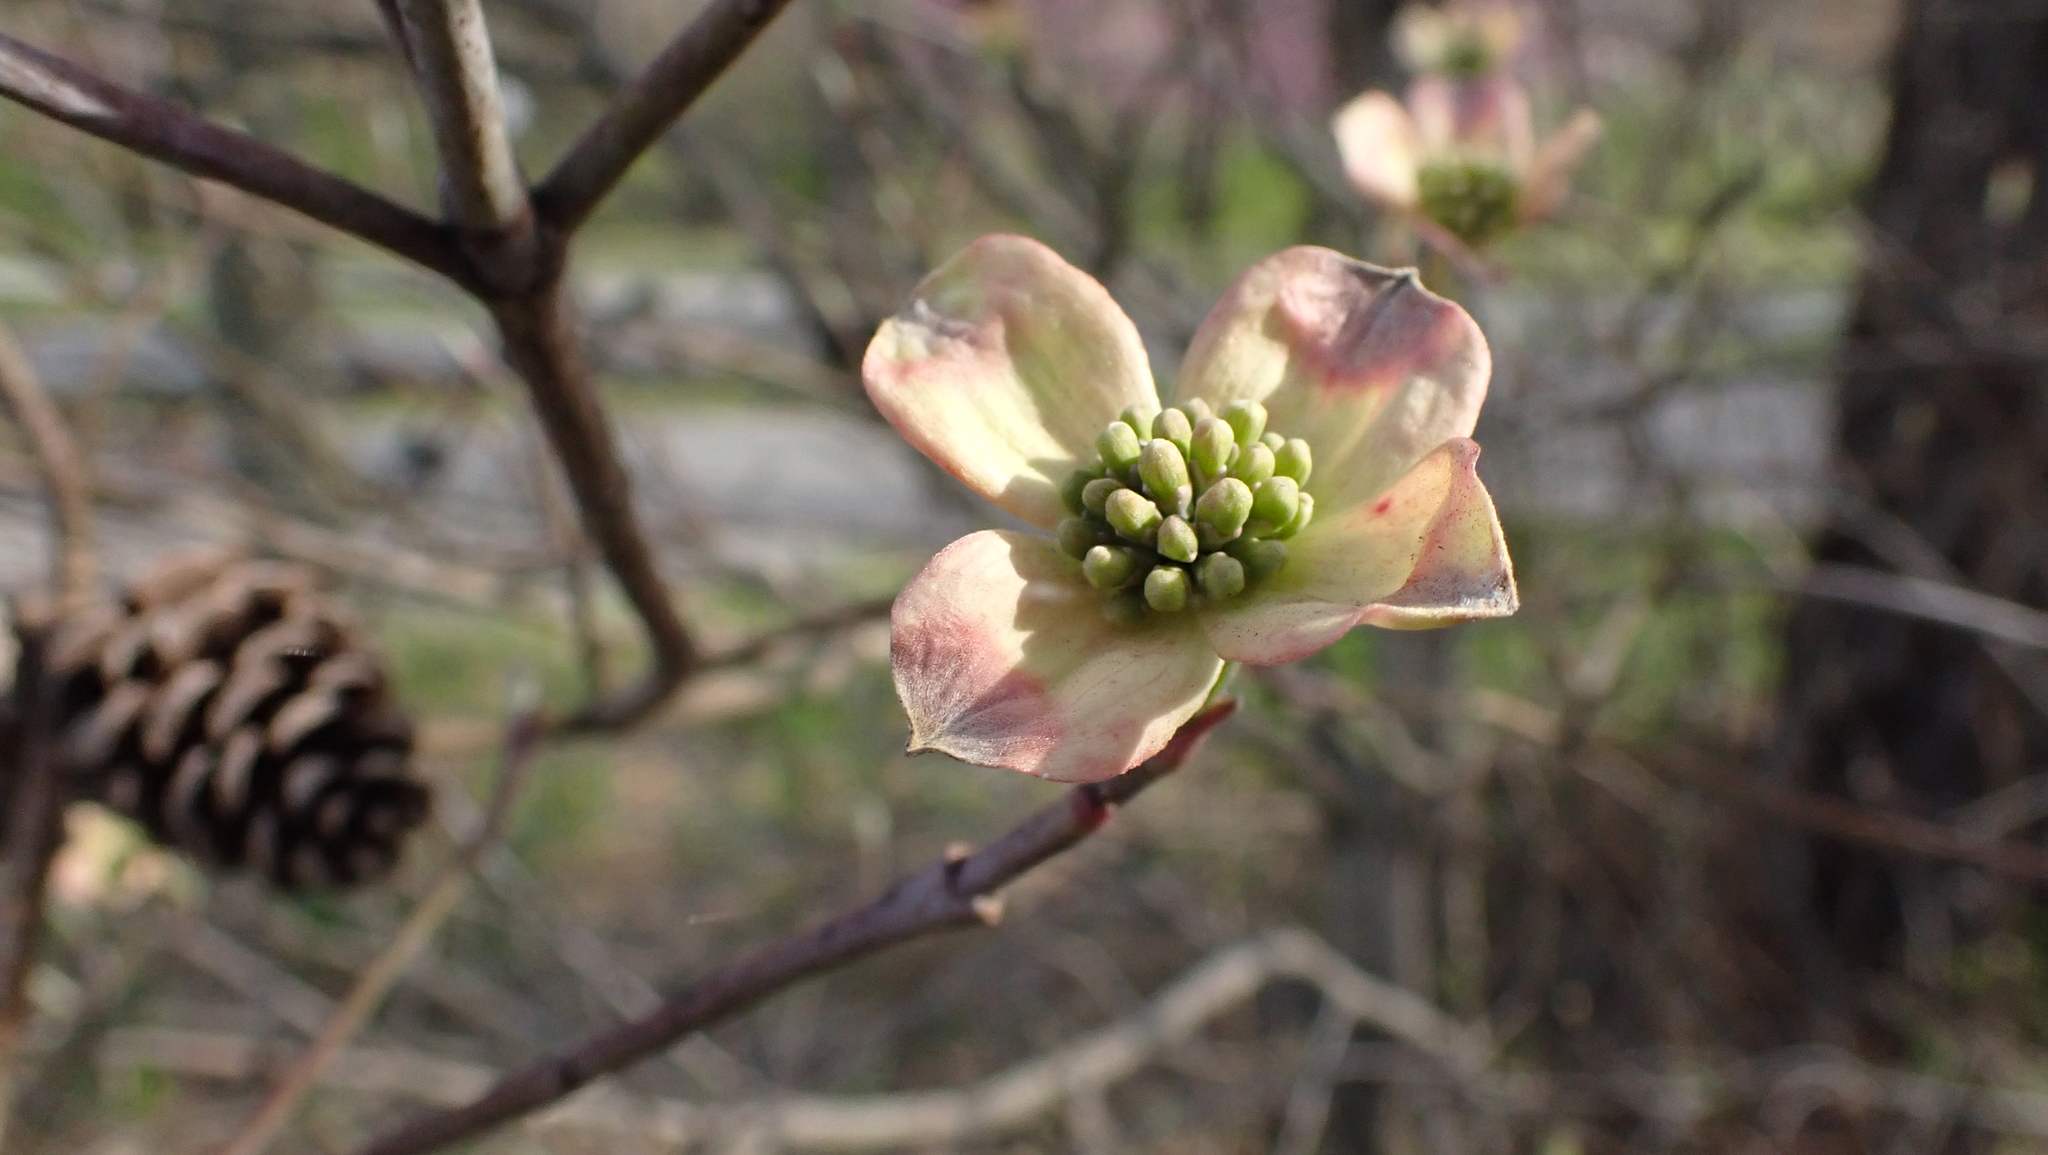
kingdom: Plantae
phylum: Tracheophyta
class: Magnoliopsida
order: Cornales
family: Cornaceae
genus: Cornus
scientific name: Cornus florida
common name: Flowering dogwood
